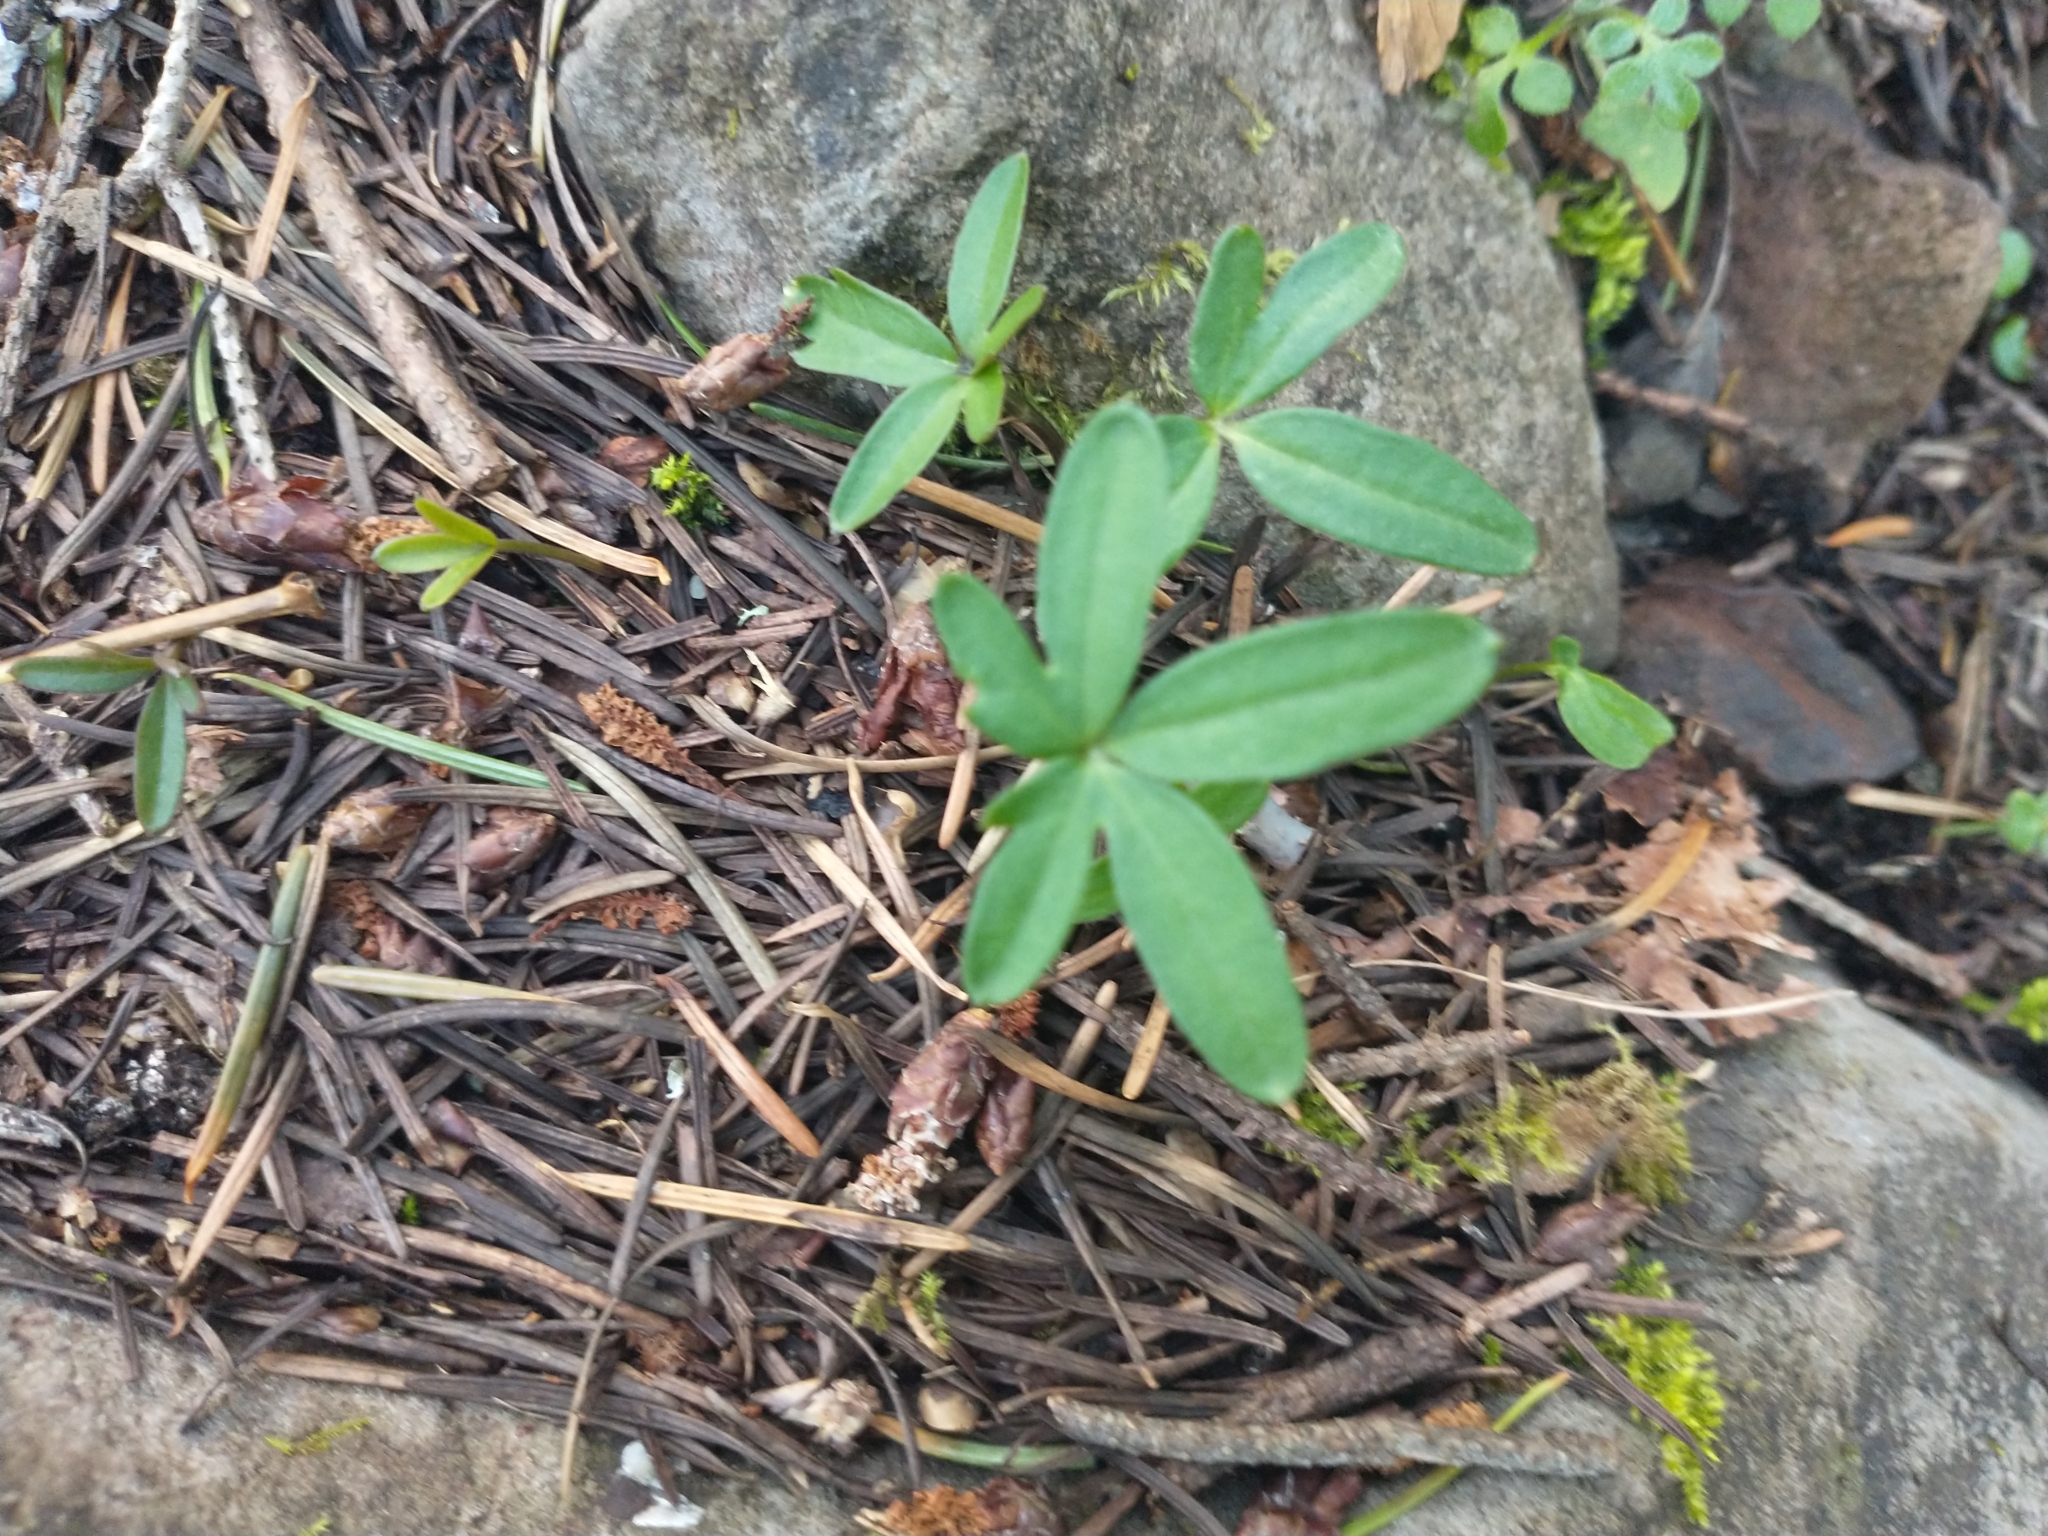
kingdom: Plantae
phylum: Tracheophyta
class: Magnoliopsida
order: Brassicales
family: Brassicaceae
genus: Cardamine
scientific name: Cardamine nuttallii
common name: Nuttall's toothwort
